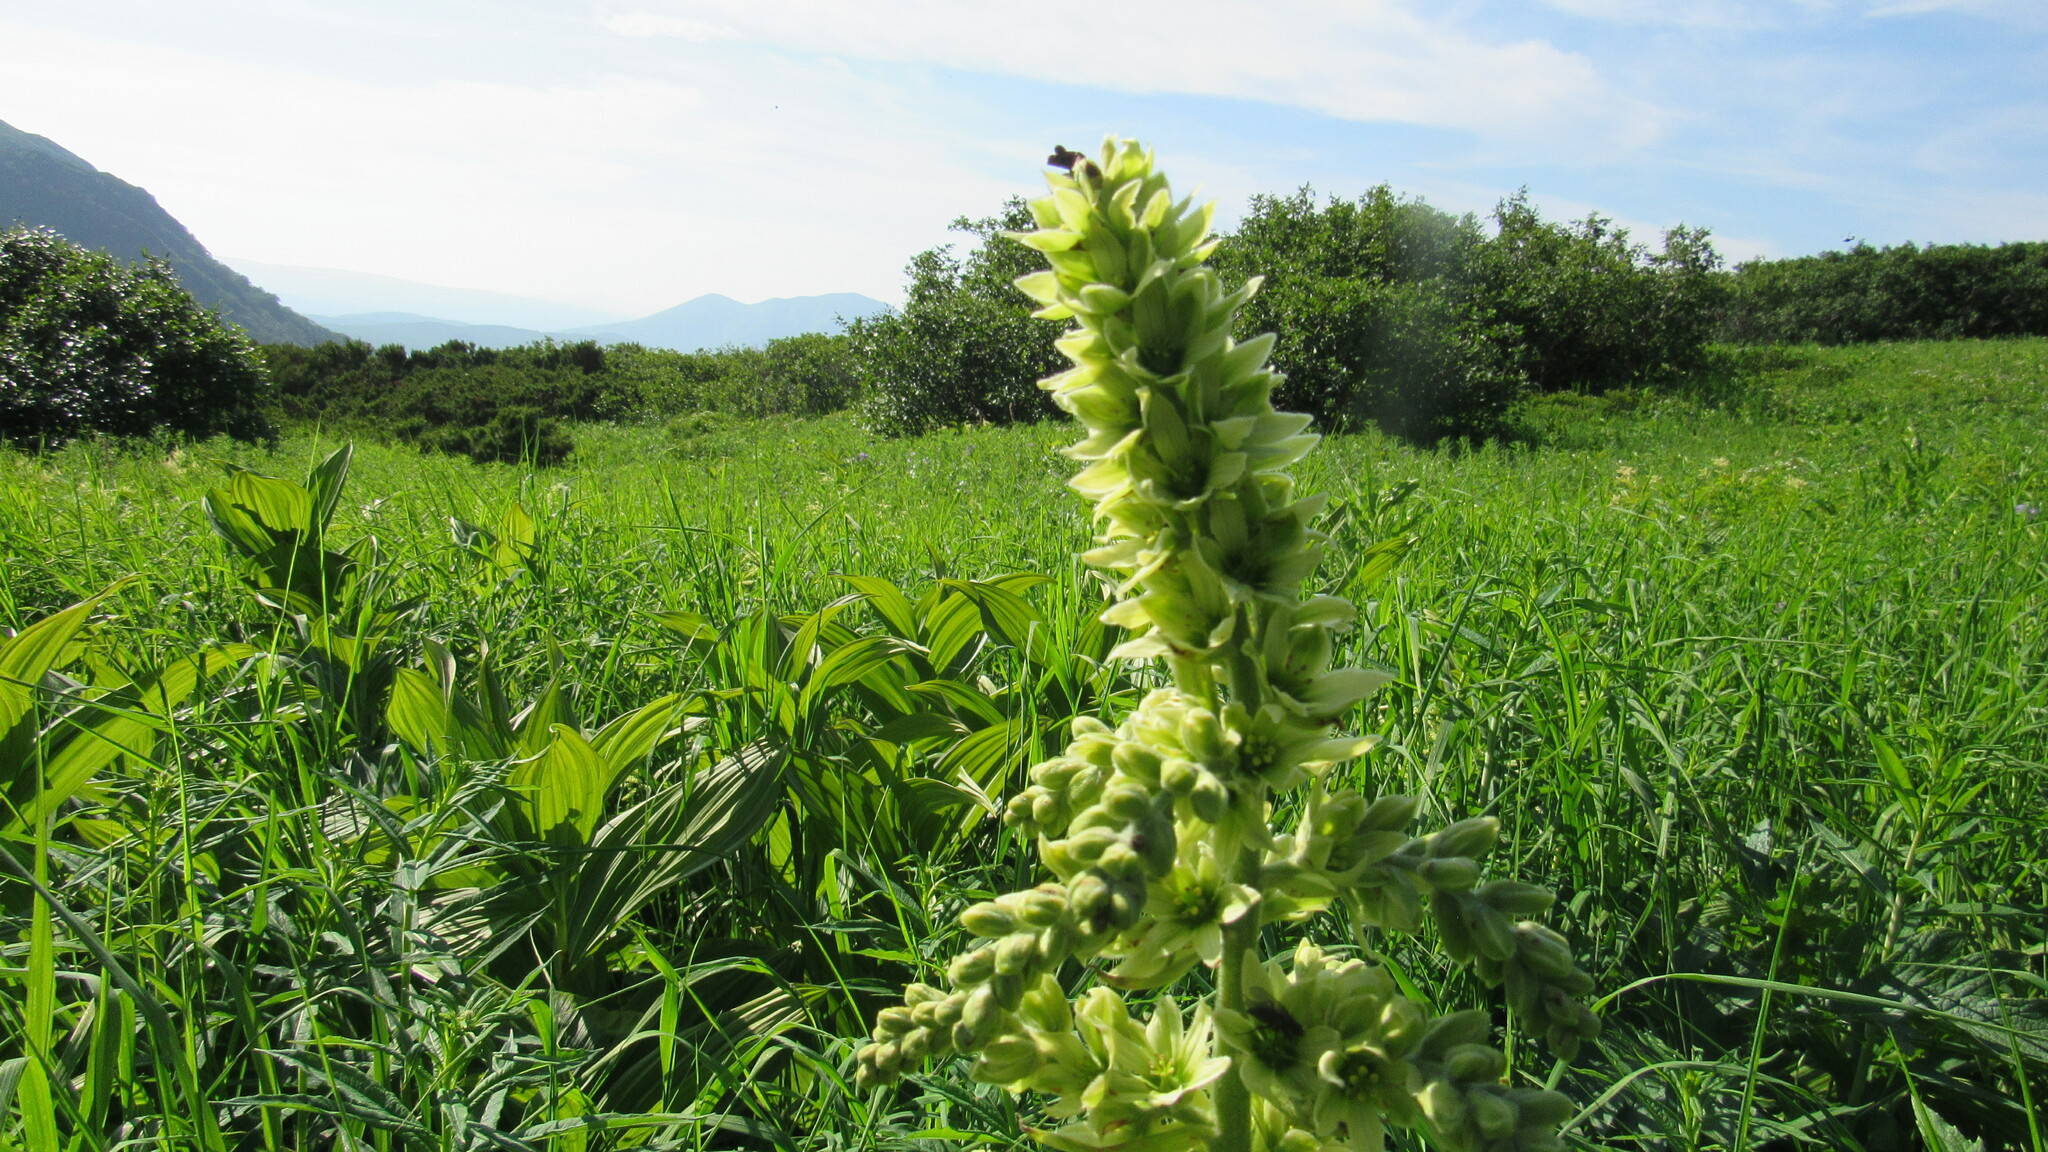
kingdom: Plantae
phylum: Tracheophyta
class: Liliopsida
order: Liliales
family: Melanthiaceae
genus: Veratrum
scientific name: Veratrum oxysepalum
